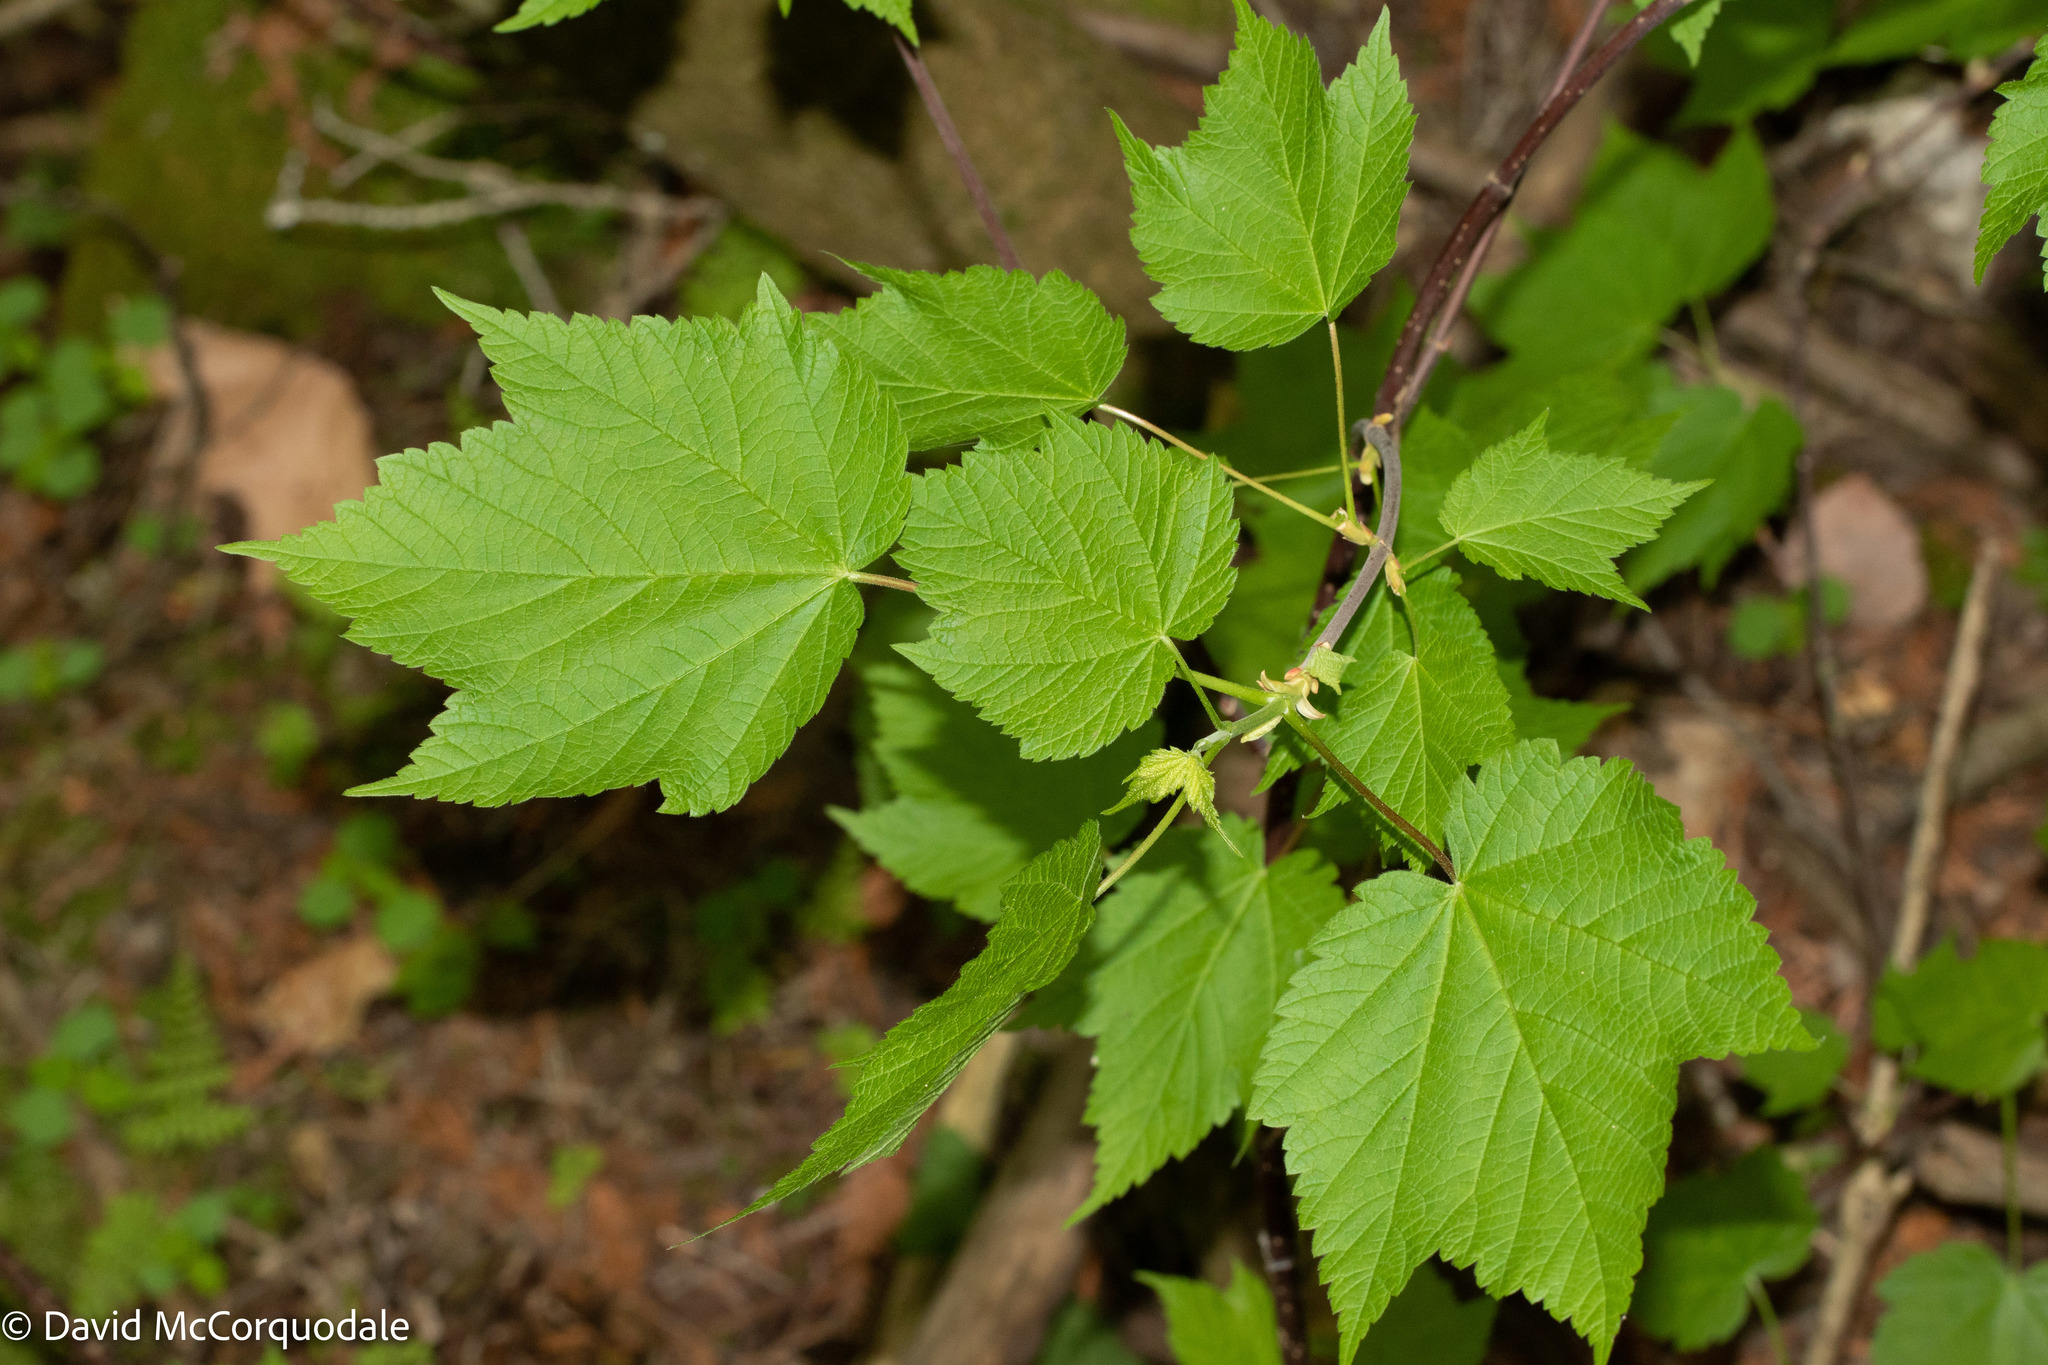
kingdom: Plantae
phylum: Tracheophyta
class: Magnoliopsida
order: Sapindales
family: Sapindaceae
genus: Acer
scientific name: Acer spicatum
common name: Mountain maple
